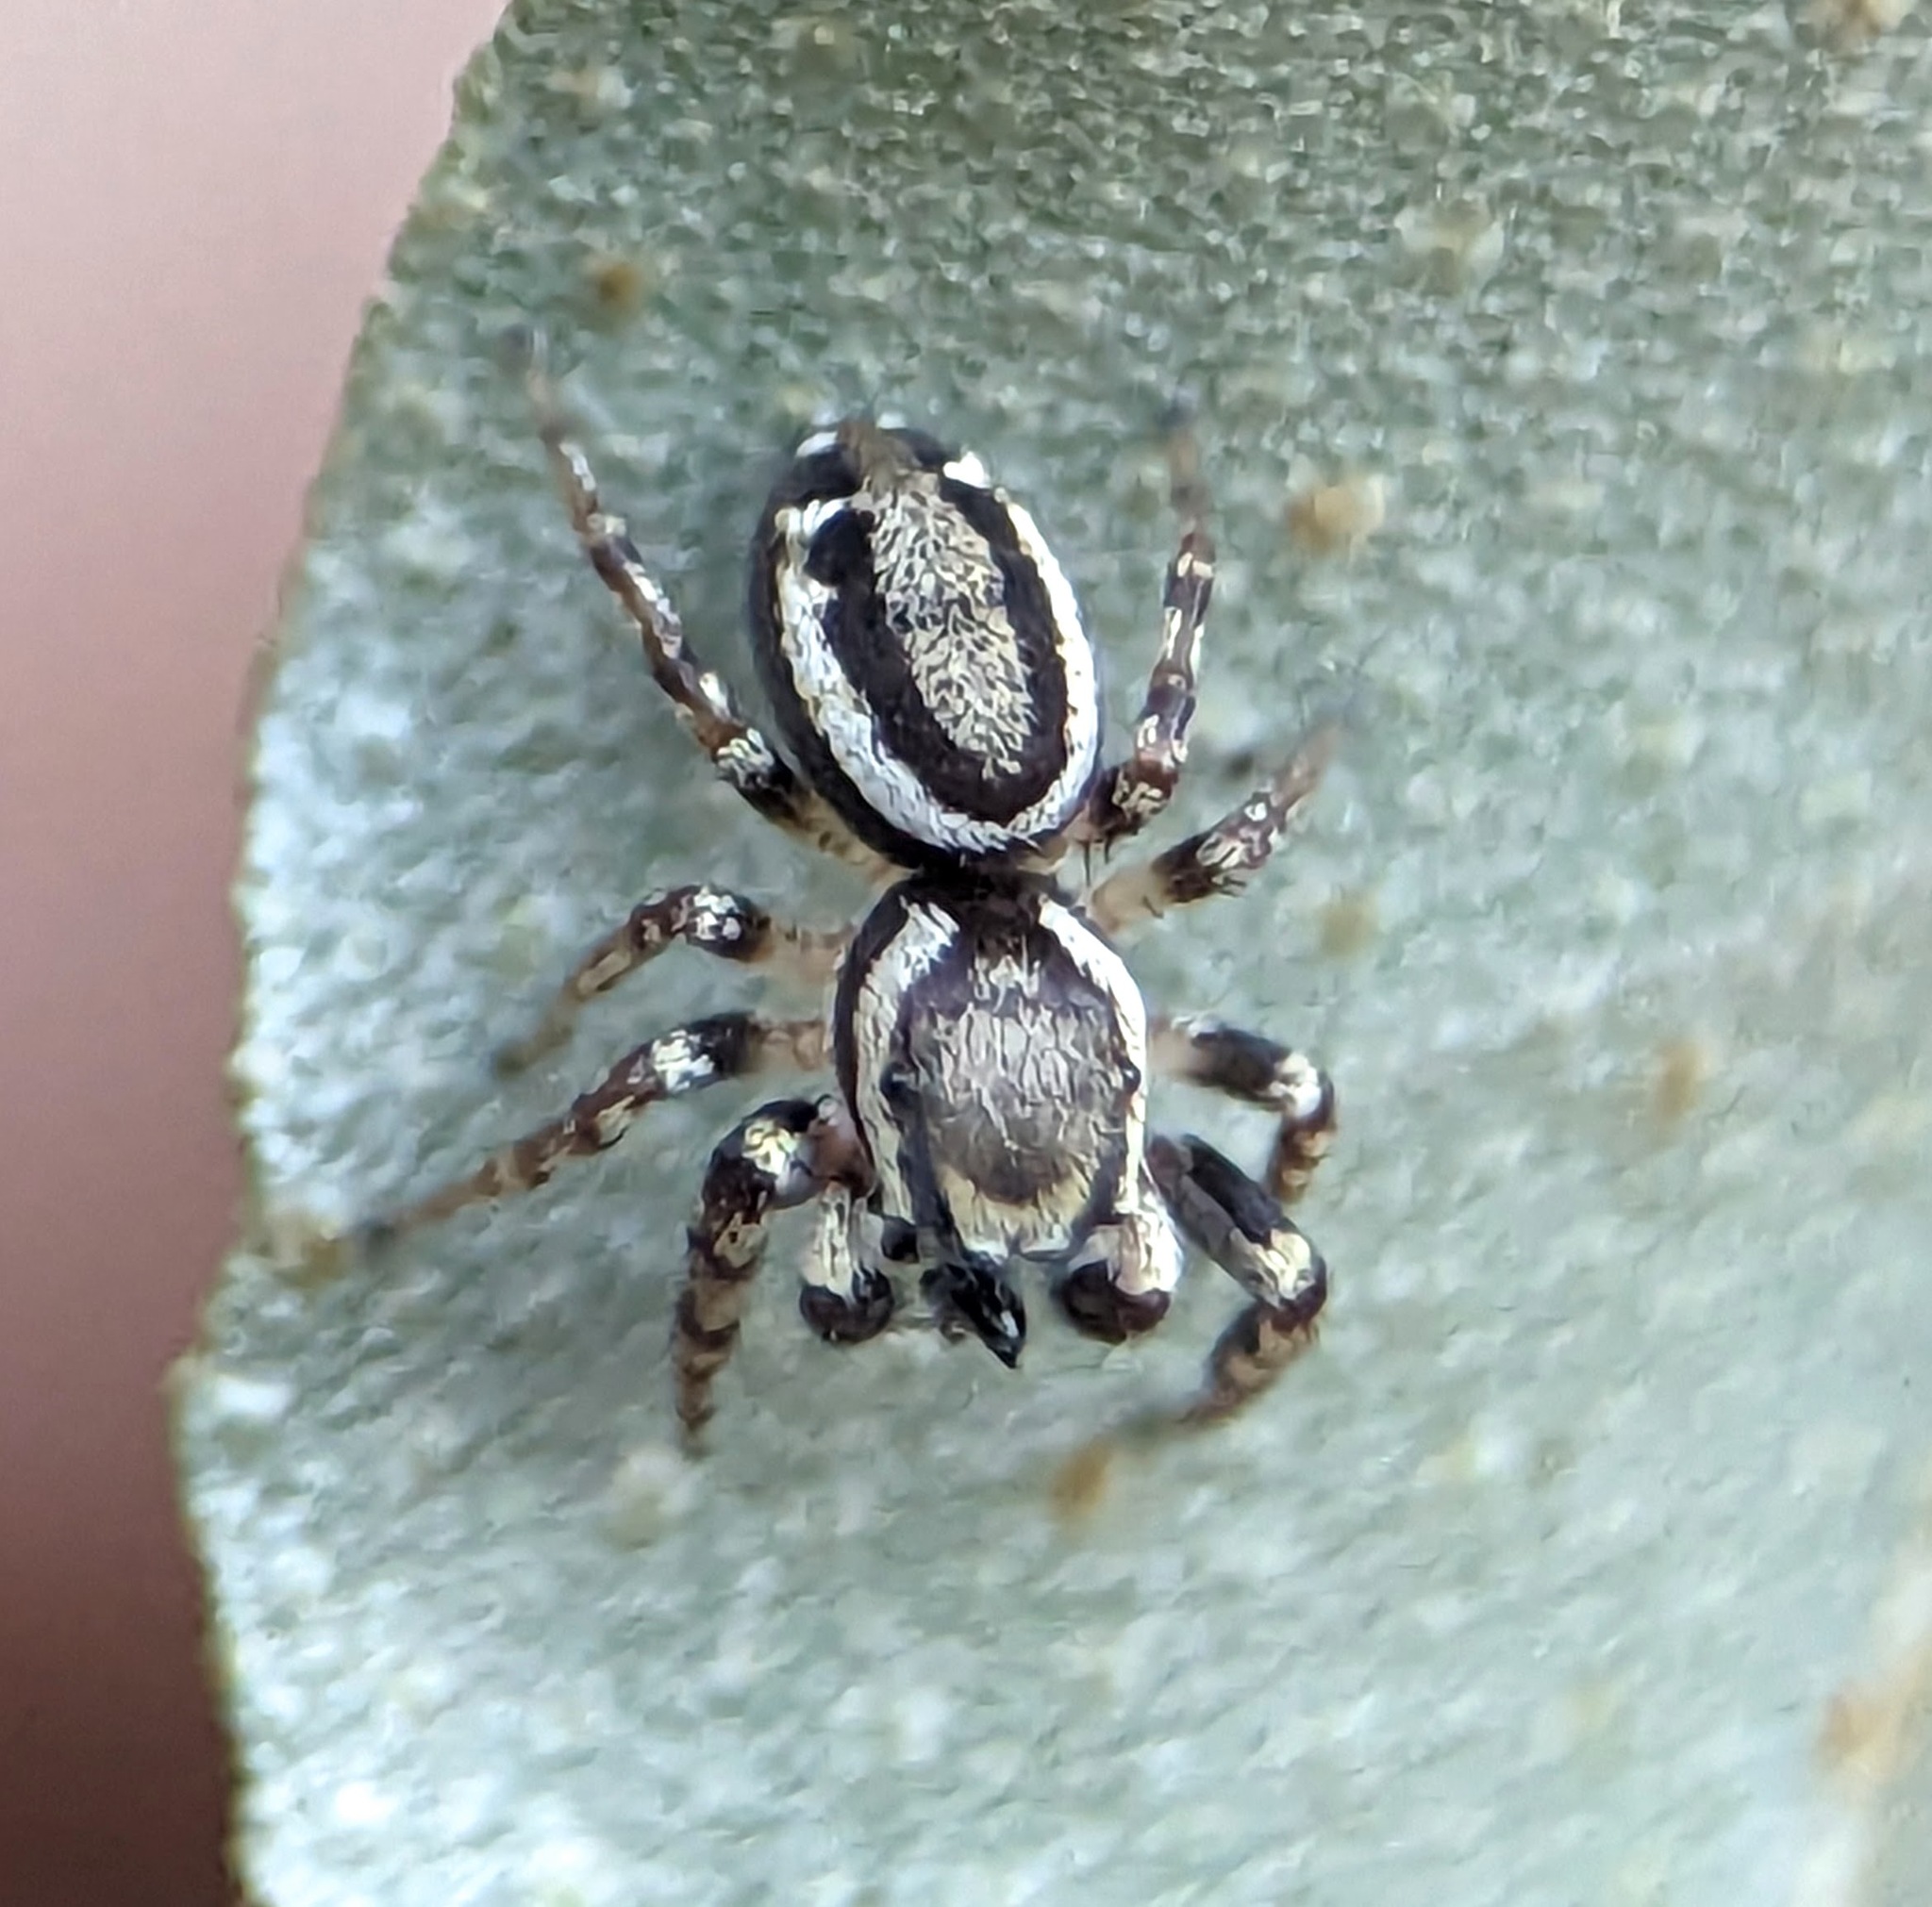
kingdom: Animalia
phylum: Arthropoda
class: Arachnida
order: Araneae
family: Salticidae
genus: Pelegrina
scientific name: Pelegrina proterva
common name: Common white-cheeked jumping spider
